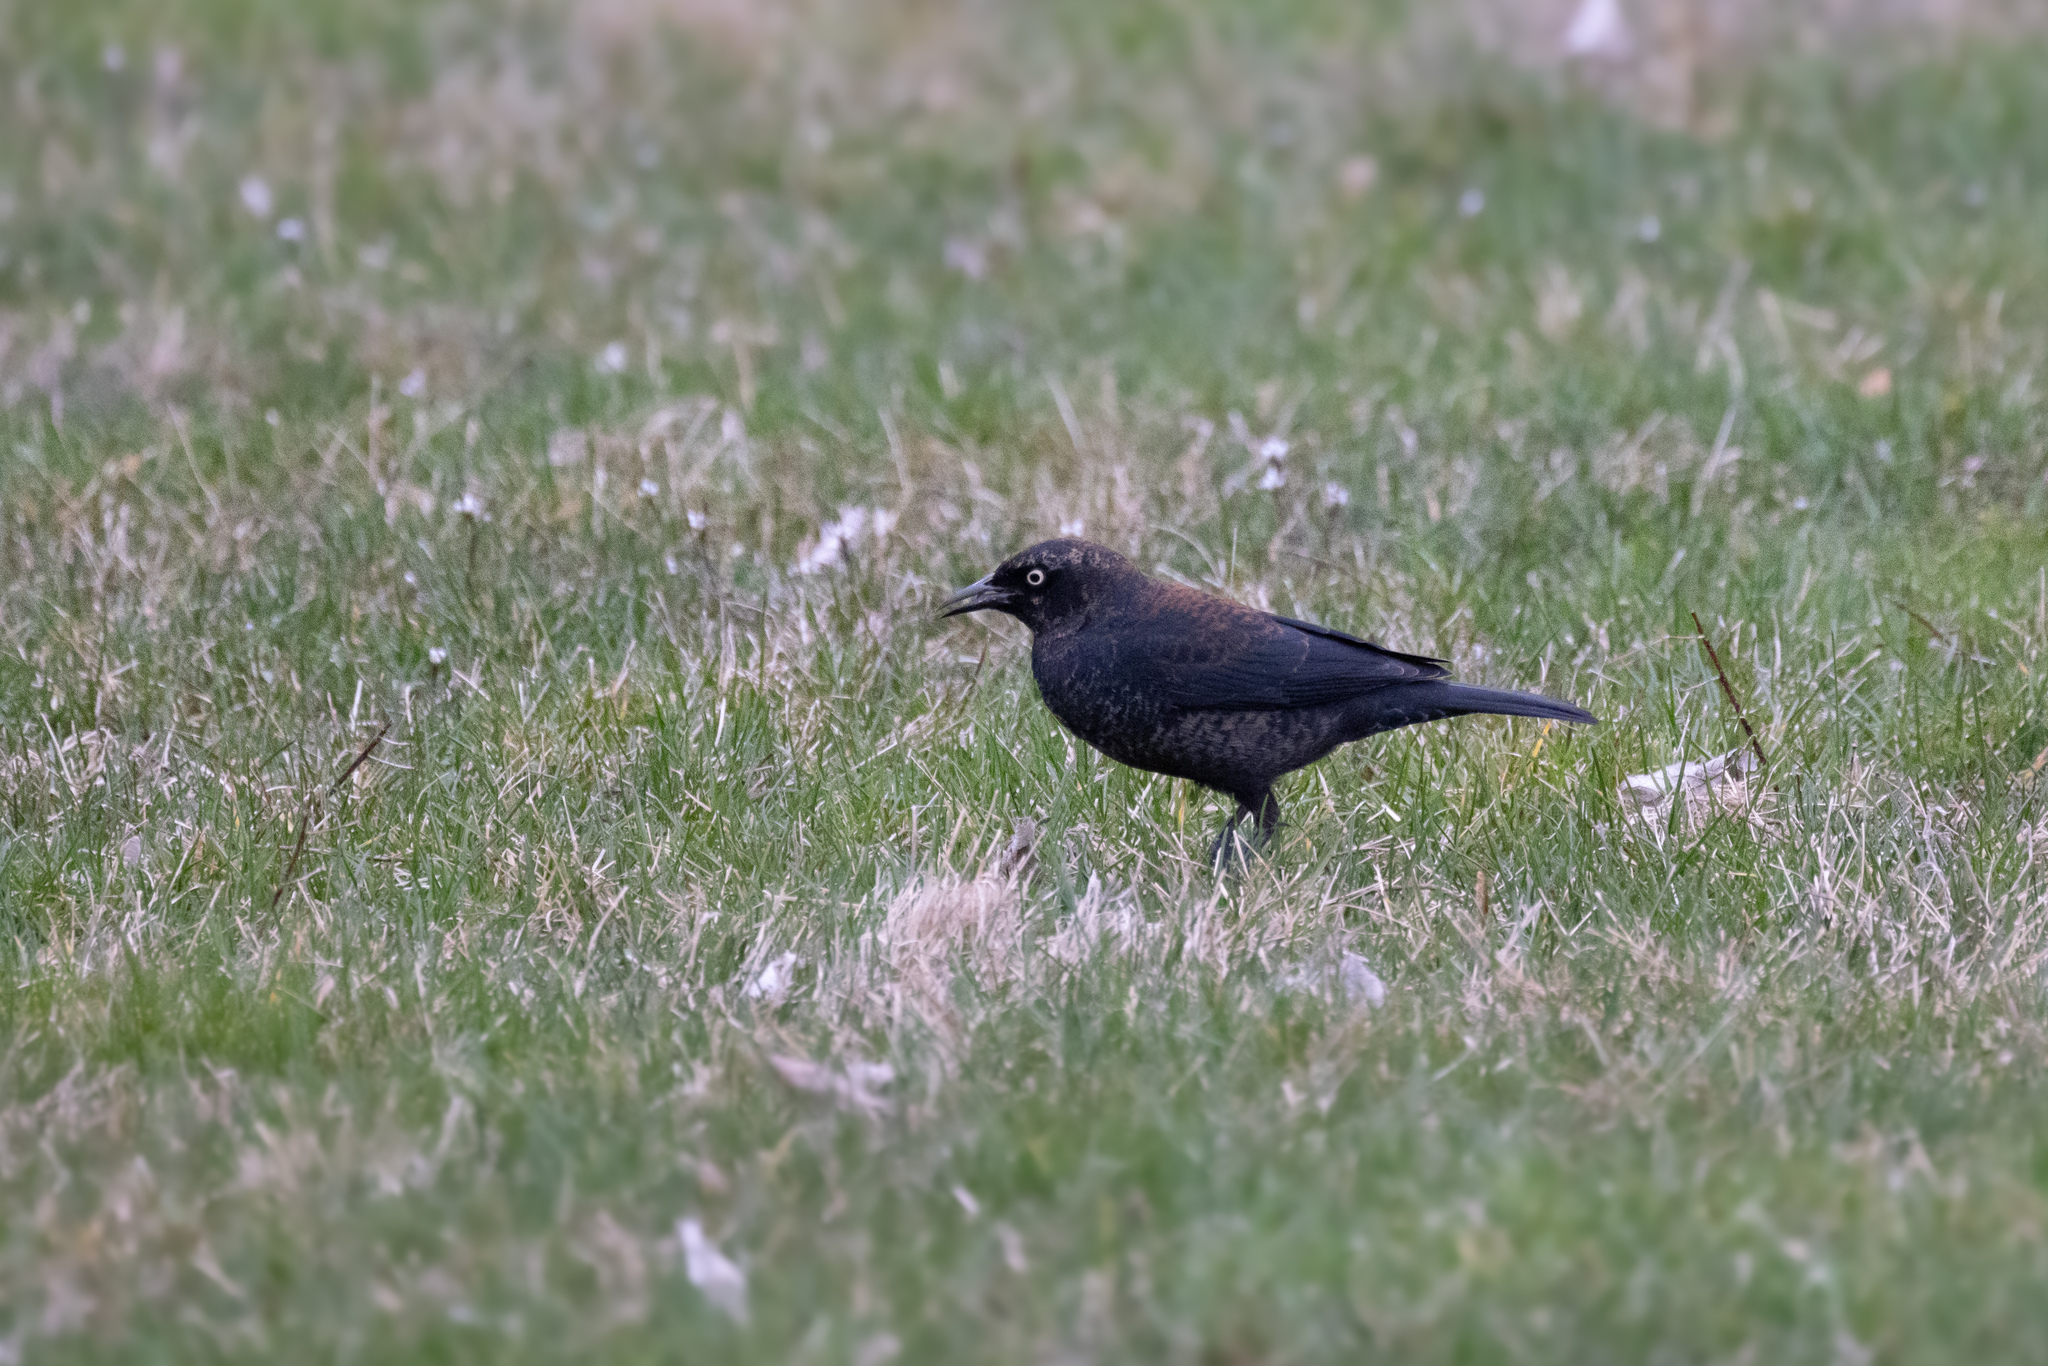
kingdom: Animalia
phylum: Chordata
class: Aves
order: Passeriformes
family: Icteridae
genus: Euphagus
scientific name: Euphagus carolinus
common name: Rusty blackbird
